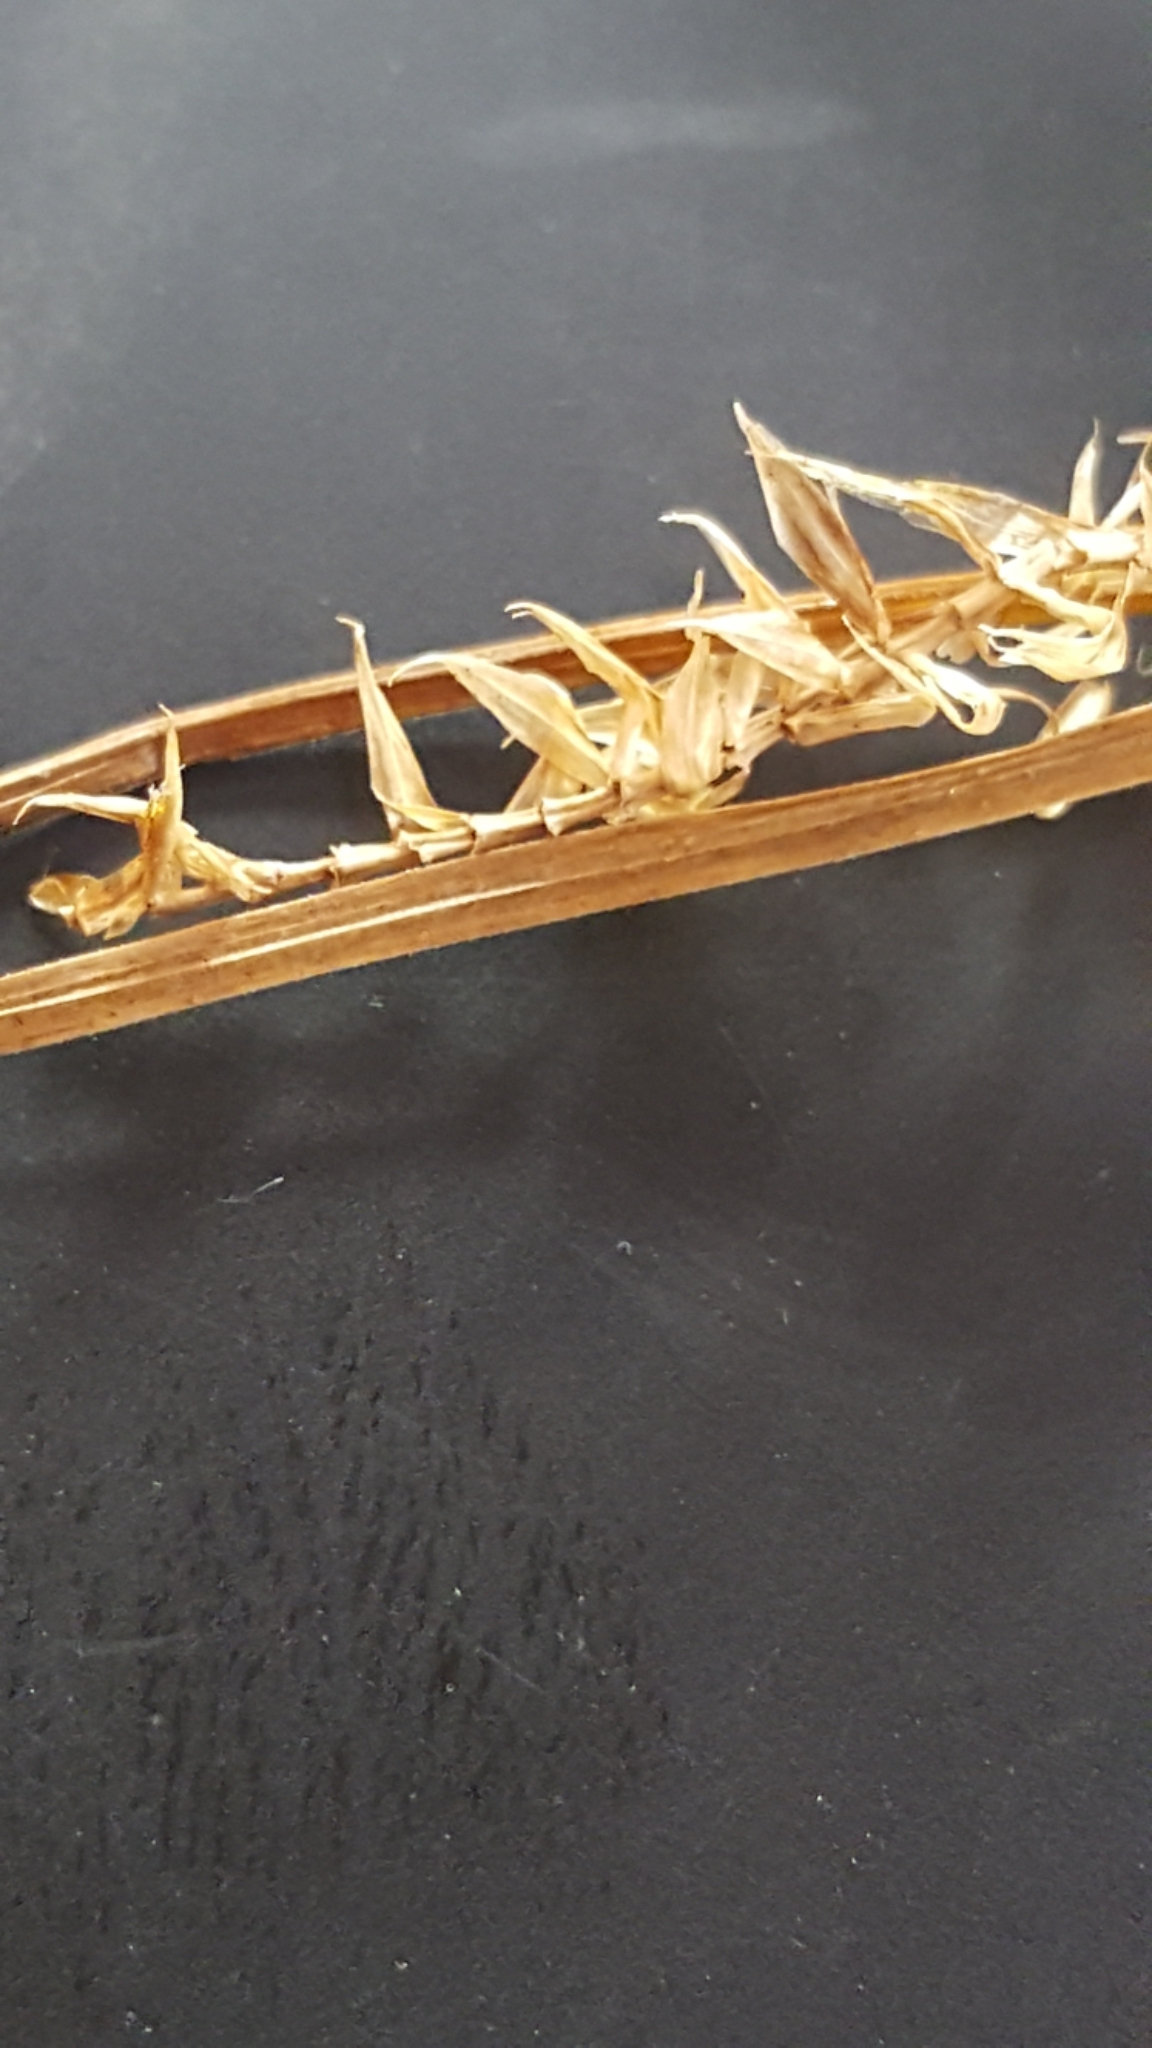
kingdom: Plantae
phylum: Tracheophyta
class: Liliopsida
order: Poales
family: Cyperaceae
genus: Carex
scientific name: Carex vesicaria
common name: Bladder-sedge
